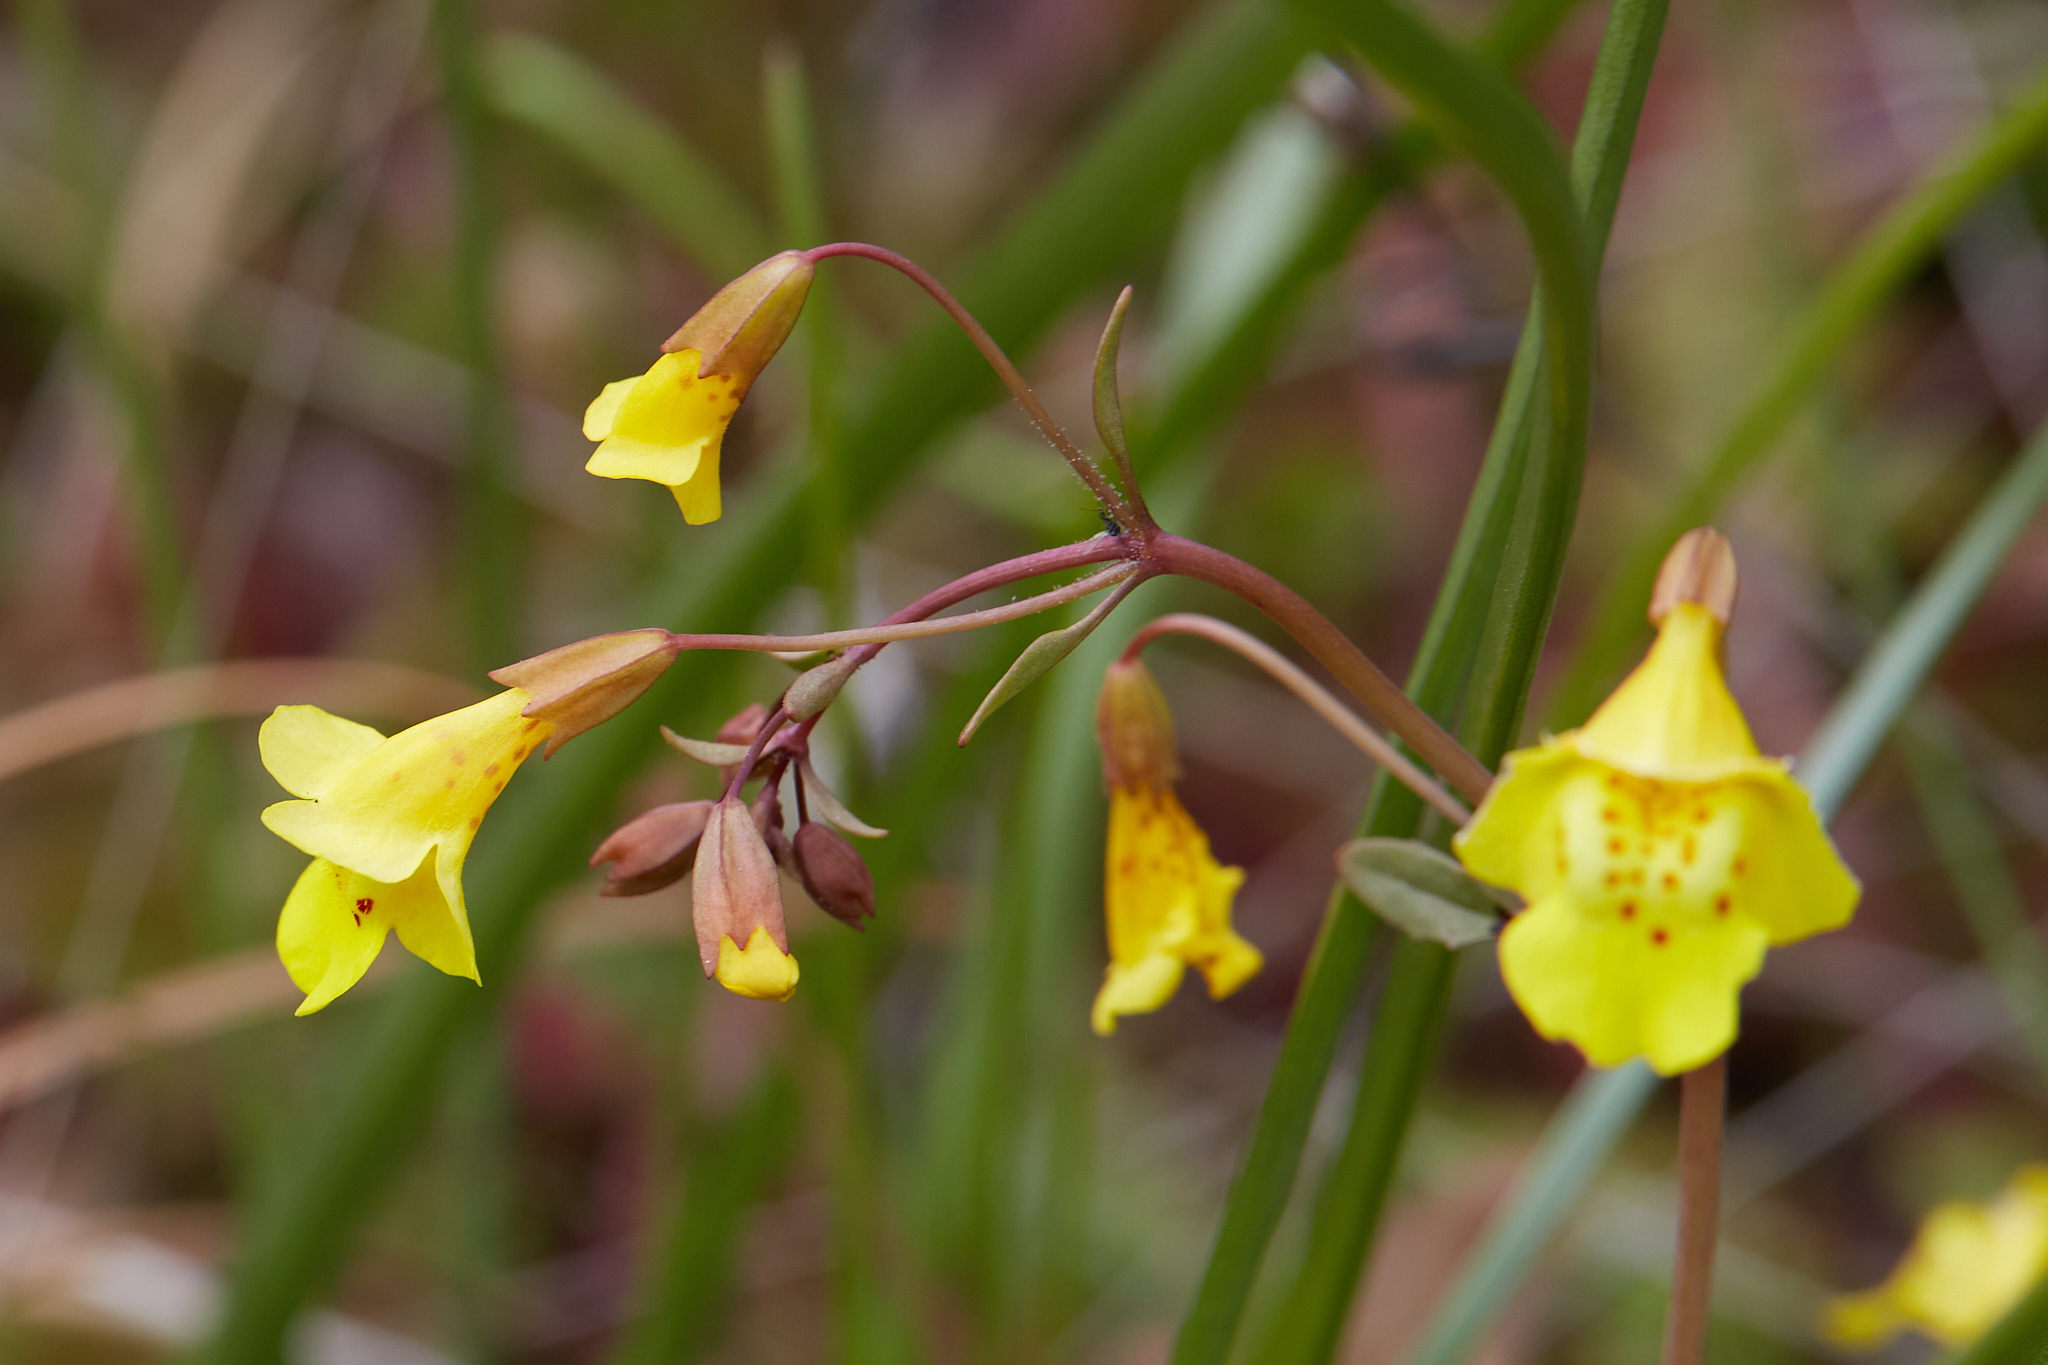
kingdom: Plantae
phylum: Tracheophyta
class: Magnoliopsida
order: Lamiales
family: Phrymaceae
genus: Erythranthe
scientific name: Erythranthe nudata
